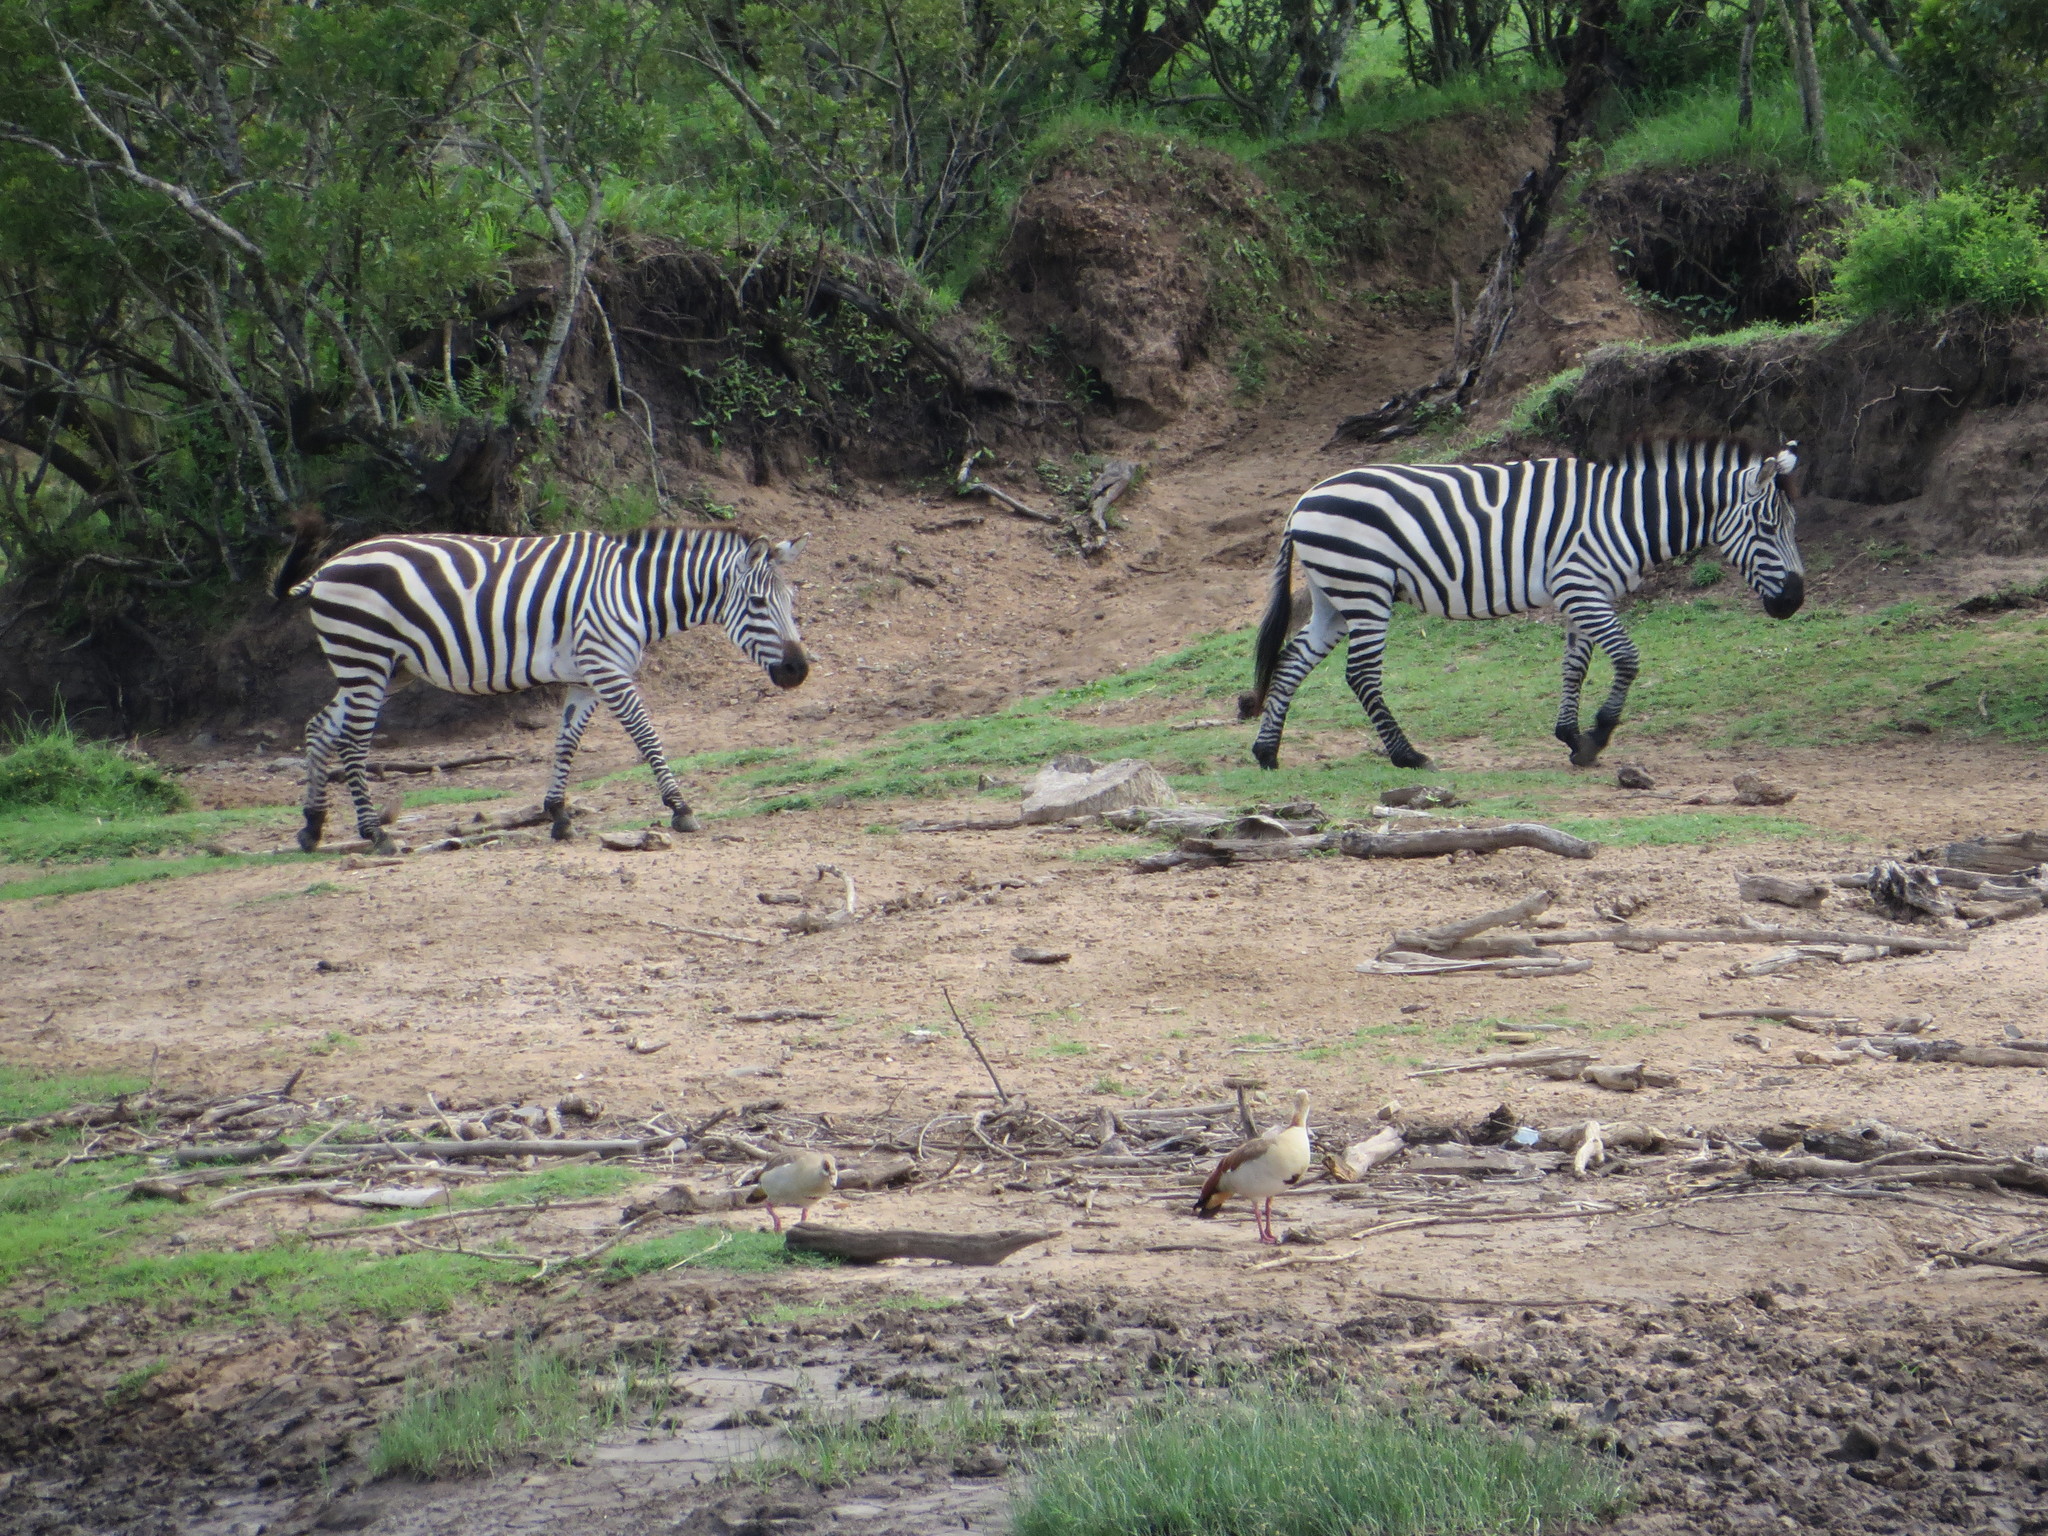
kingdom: Animalia
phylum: Chordata
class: Mammalia
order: Perissodactyla
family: Equidae
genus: Equus
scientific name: Equus quagga
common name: Plains zebra
